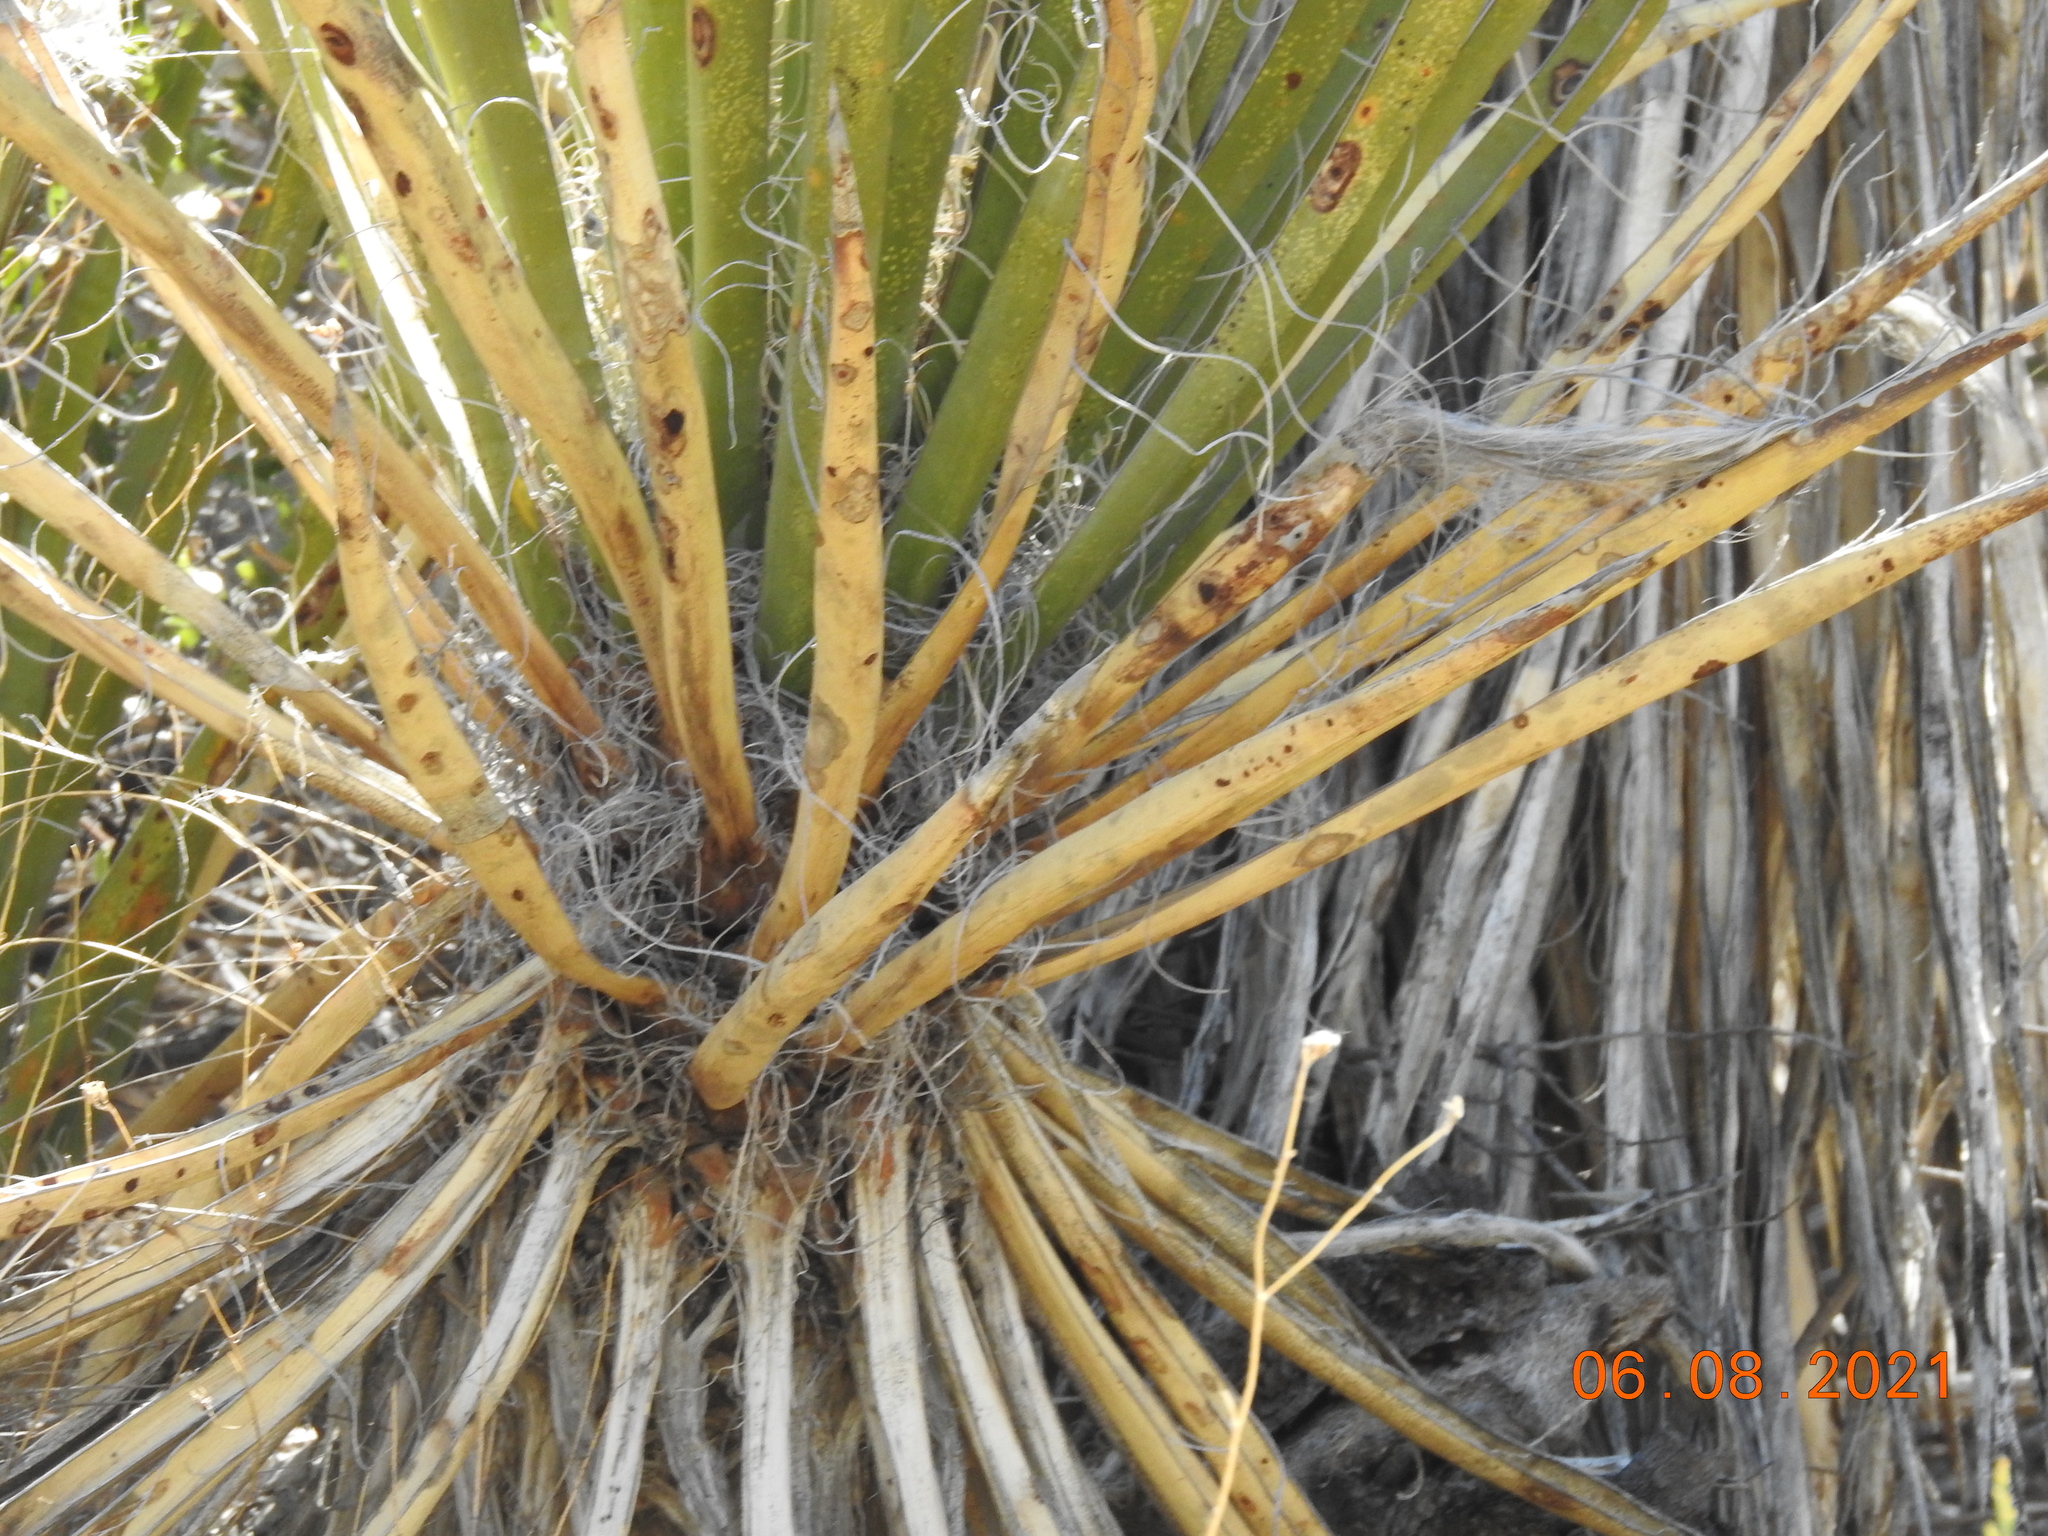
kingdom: Plantae
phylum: Tracheophyta
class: Liliopsida
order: Asparagales
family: Asparagaceae
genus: Yucca
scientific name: Yucca schidigera
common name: Mojave yucca
